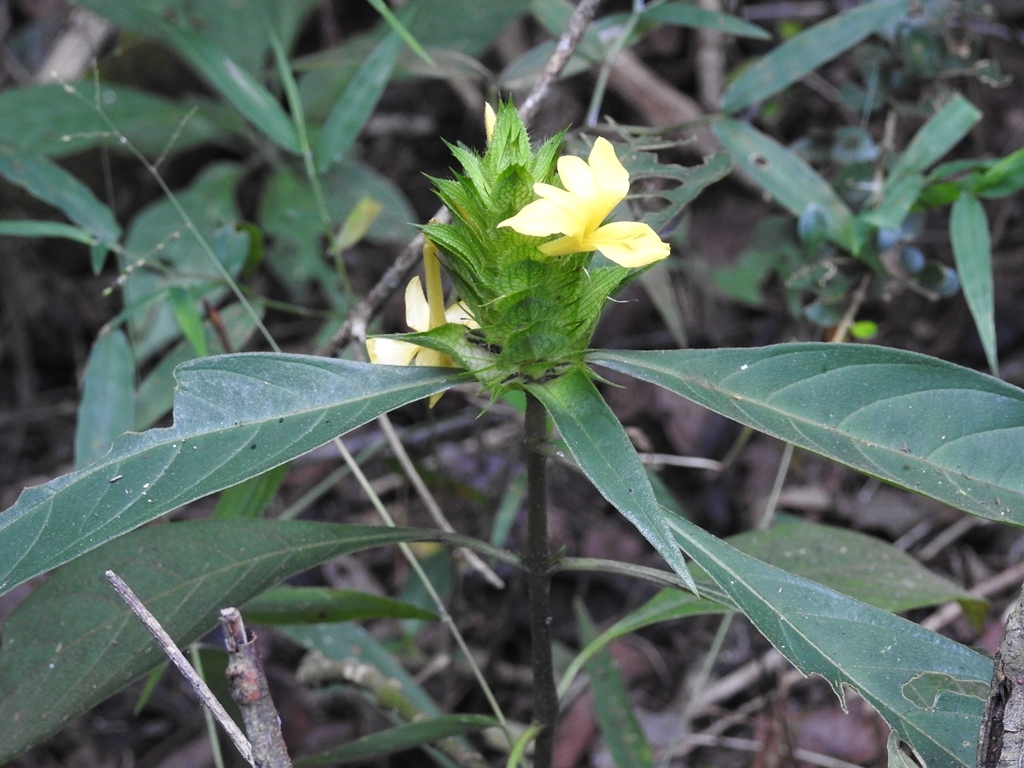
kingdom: Plantae
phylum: Tracheophyta
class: Magnoliopsida
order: Lamiales
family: Acanthaceae
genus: Barleria
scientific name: Barleria oenotheroides
